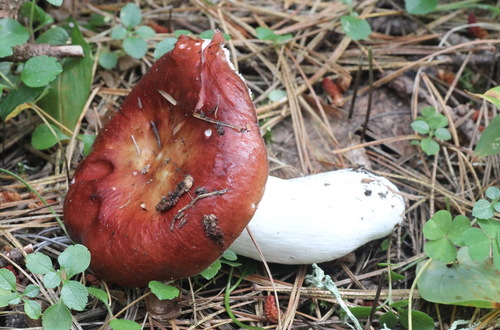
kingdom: Fungi
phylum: Basidiomycota
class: Agaricomycetes
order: Russulales
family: Russulaceae
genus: Russula
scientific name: Russula sanguinaria
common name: Bloody brittlegill
